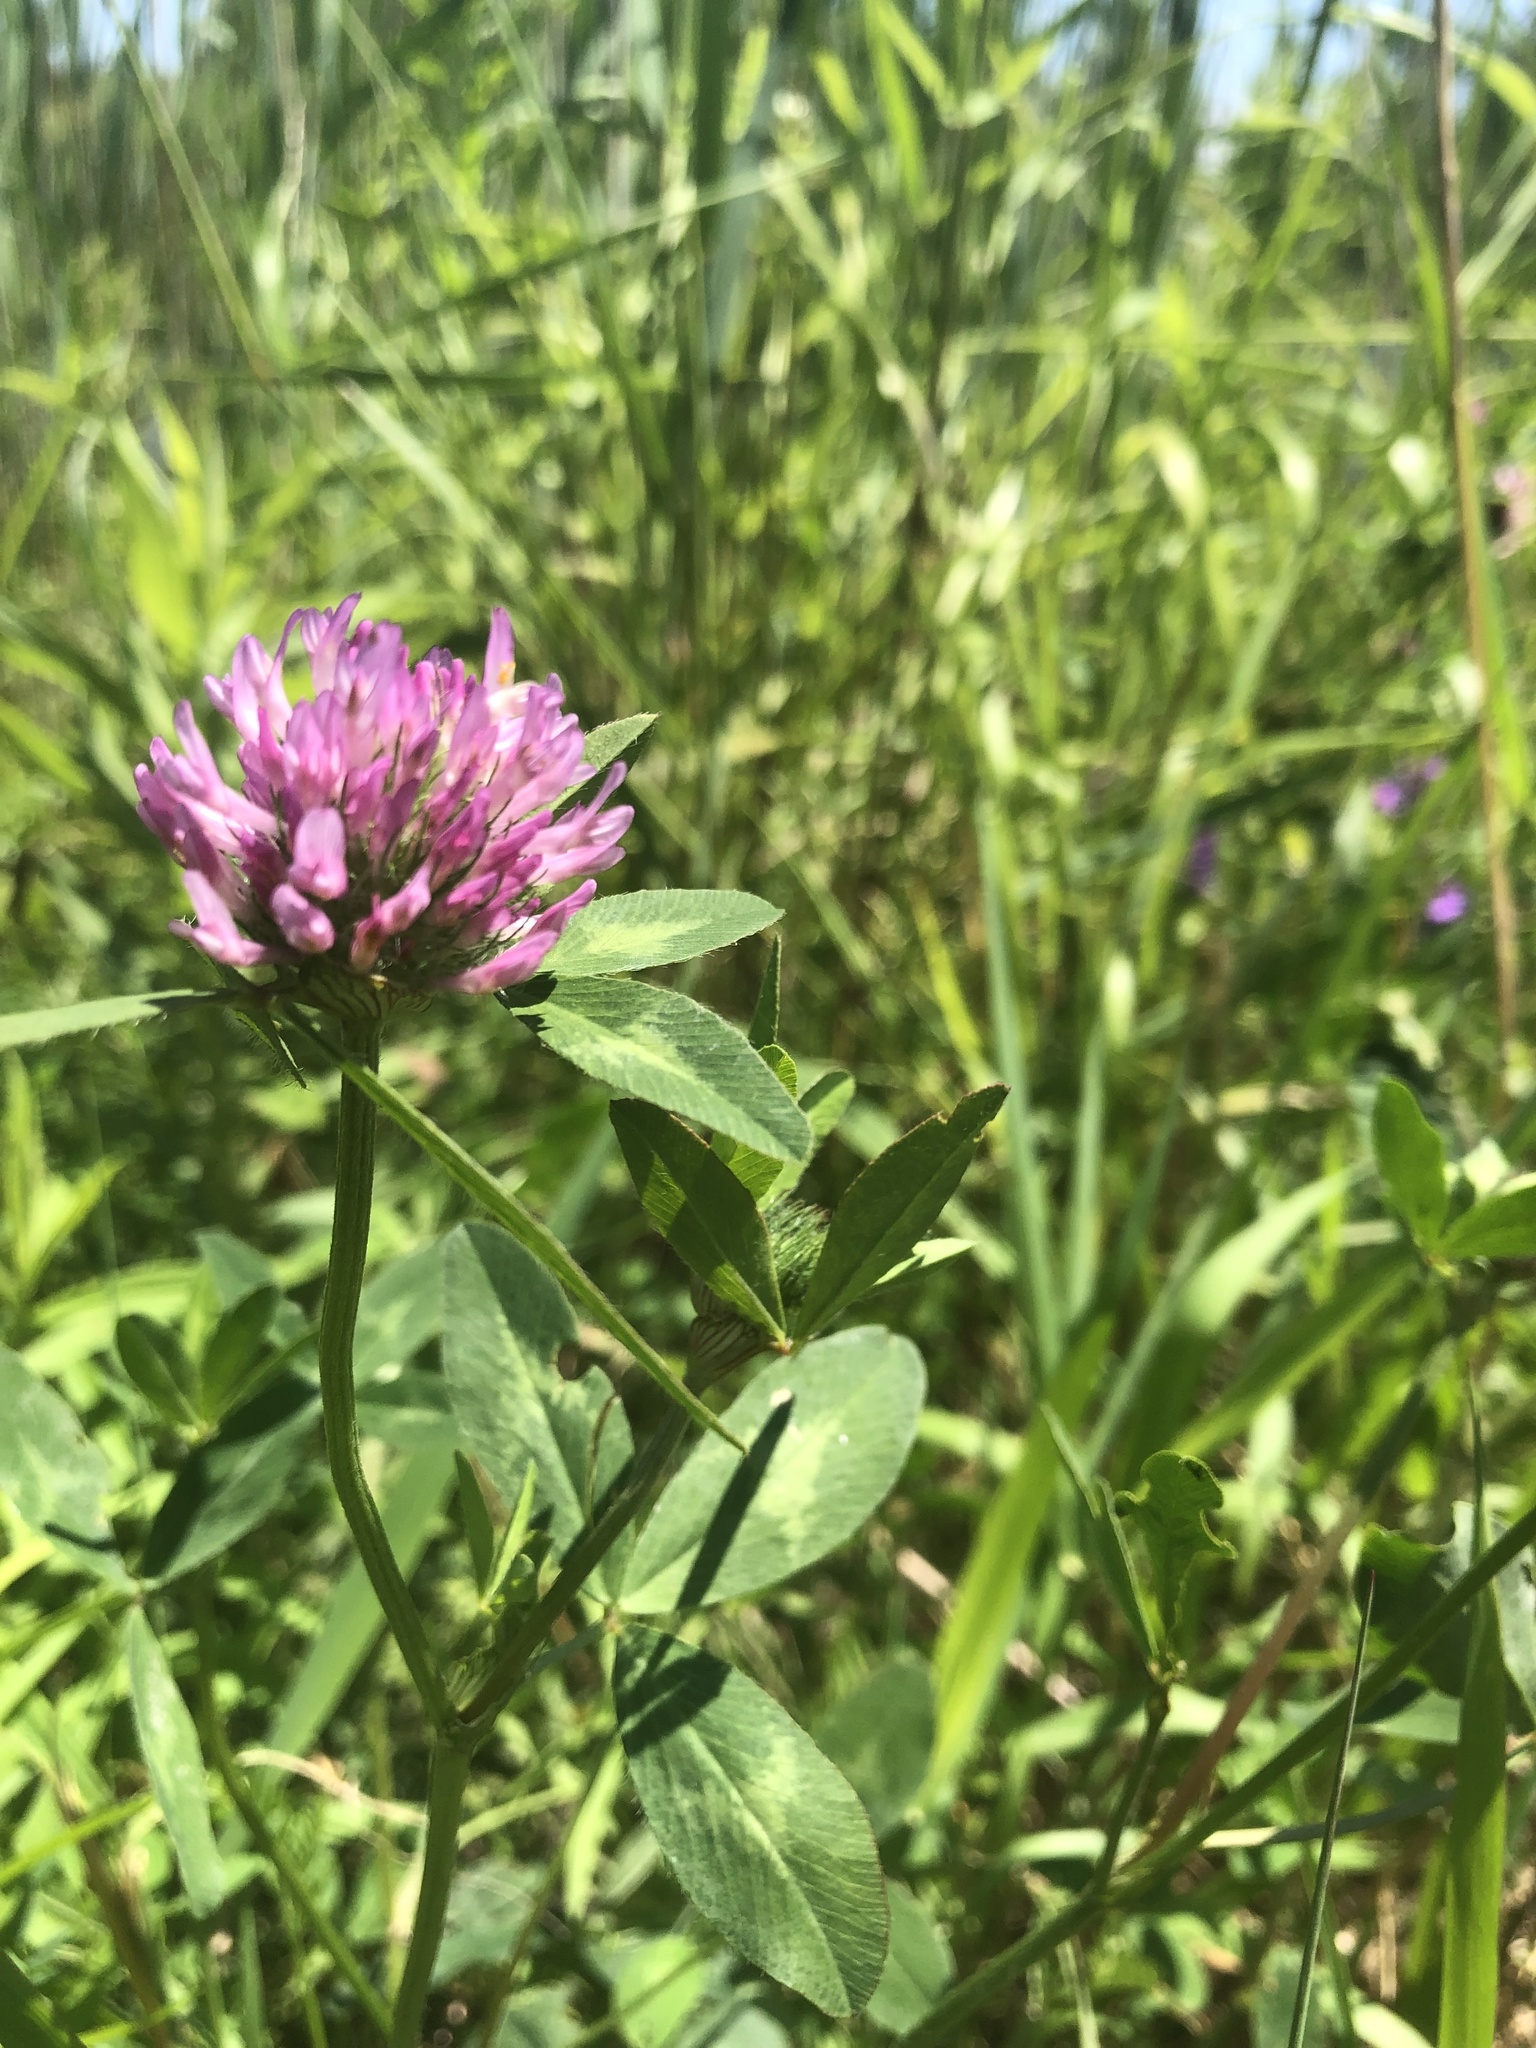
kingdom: Plantae
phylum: Tracheophyta
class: Magnoliopsida
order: Fabales
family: Fabaceae
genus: Trifolium
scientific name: Trifolium pratense
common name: Red clover
